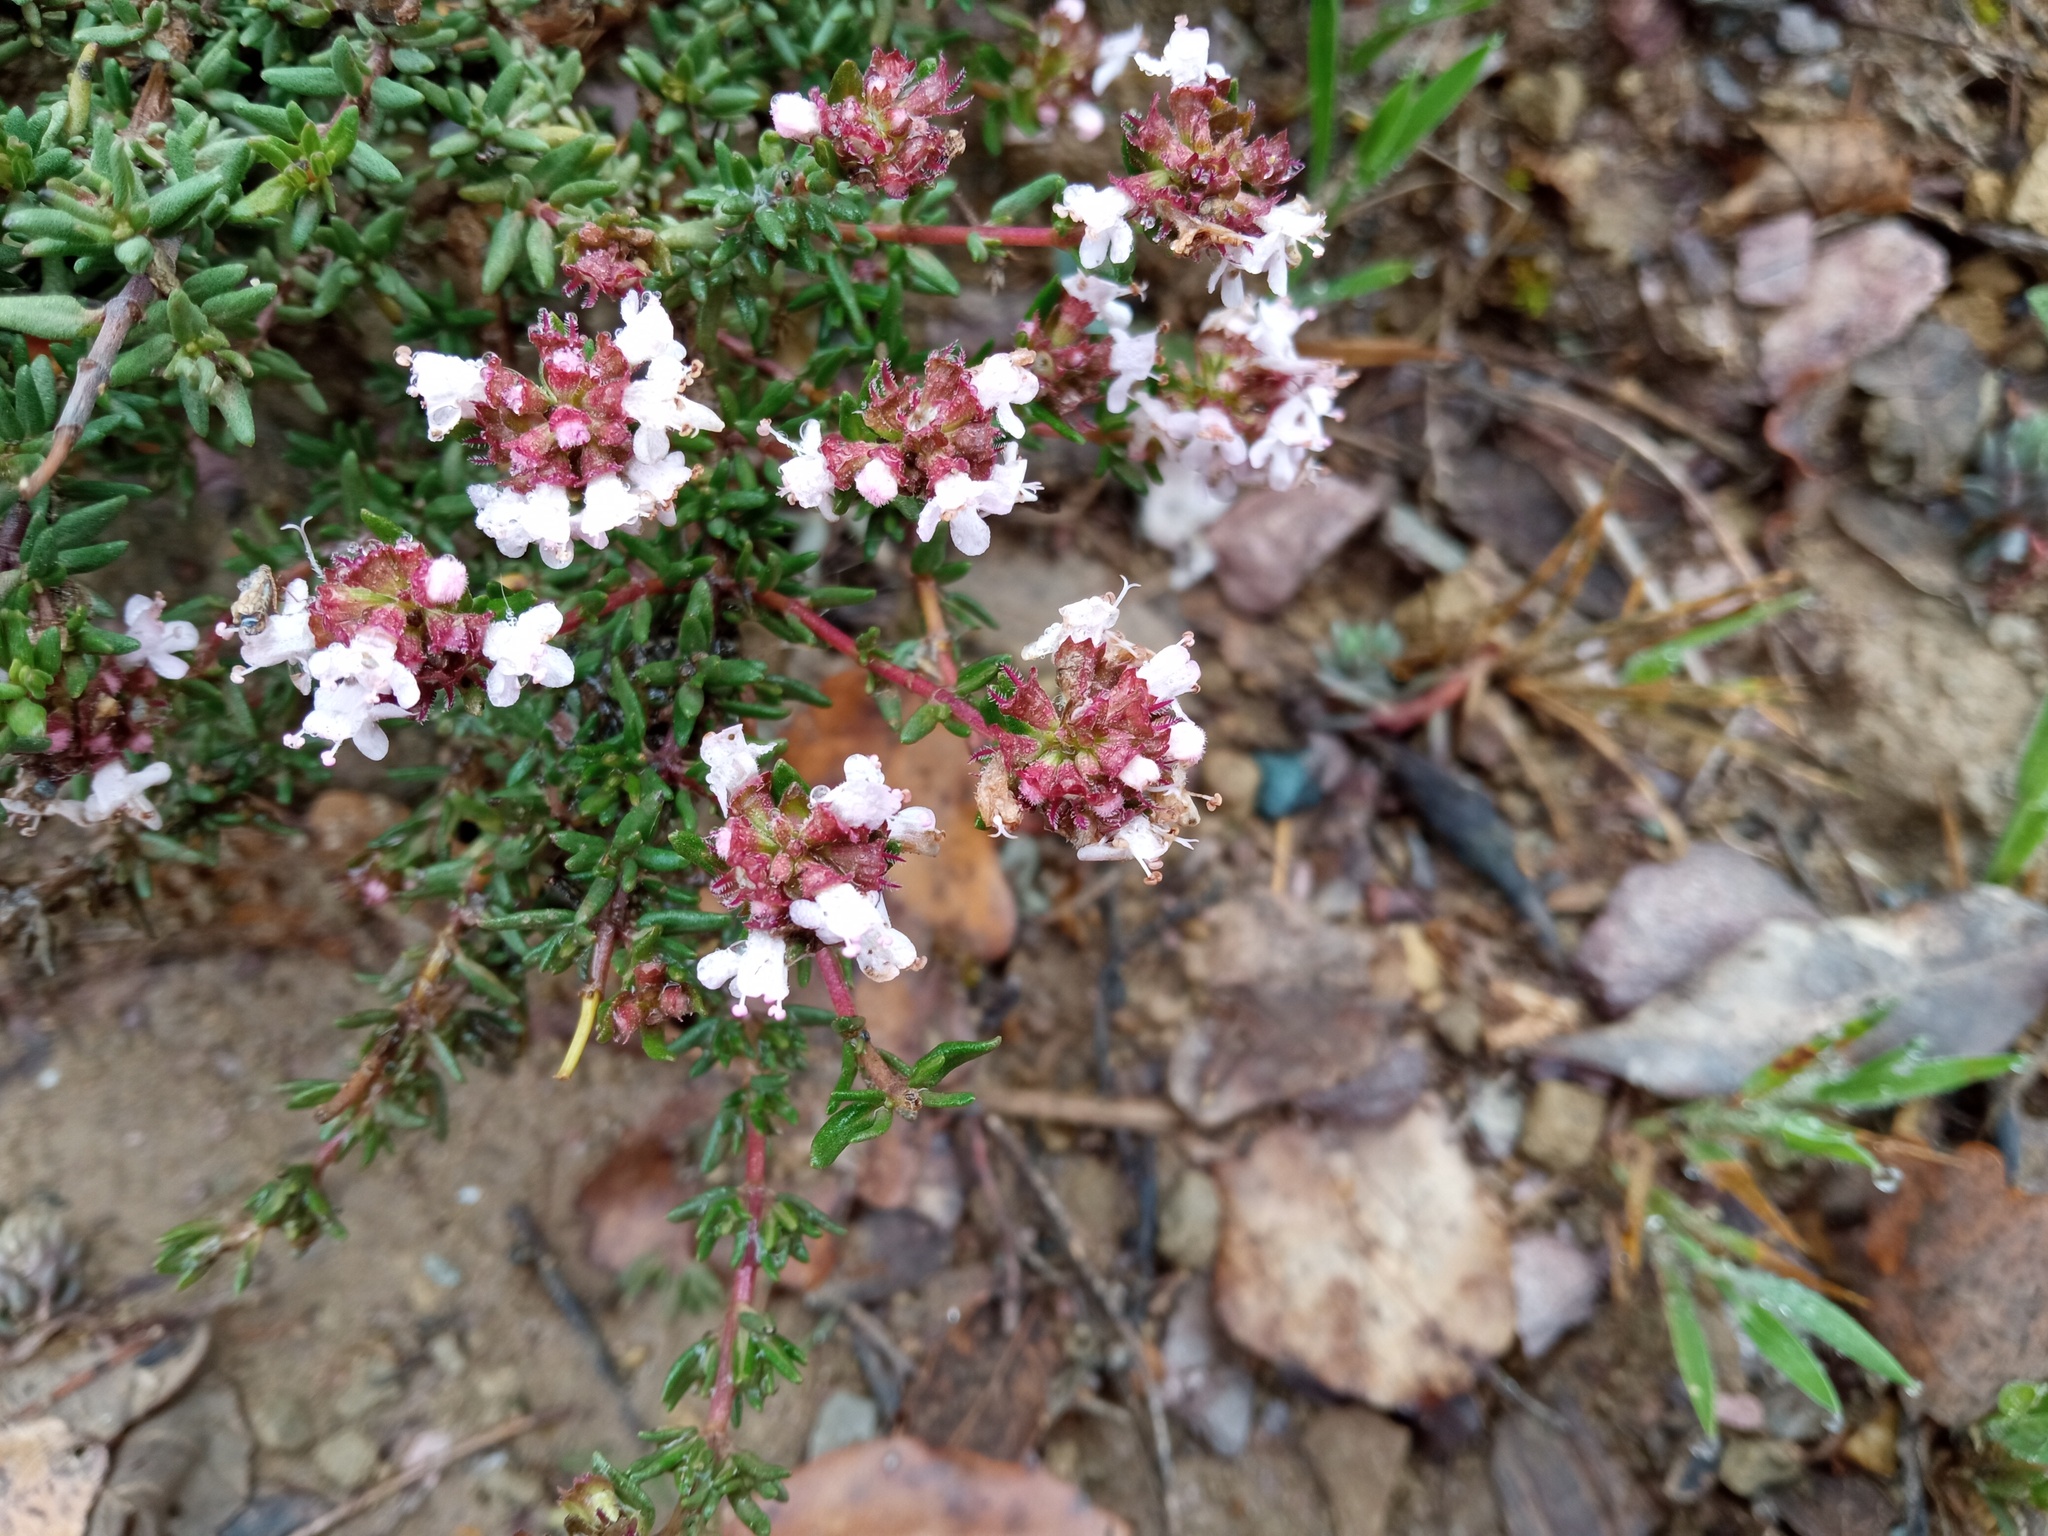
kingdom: Plantae
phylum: Tracheophyta
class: Magnoliopsida
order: Lamiales
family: Lamiaceae
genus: Thymus
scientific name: Thymus vulgaris
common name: Garden thyme
